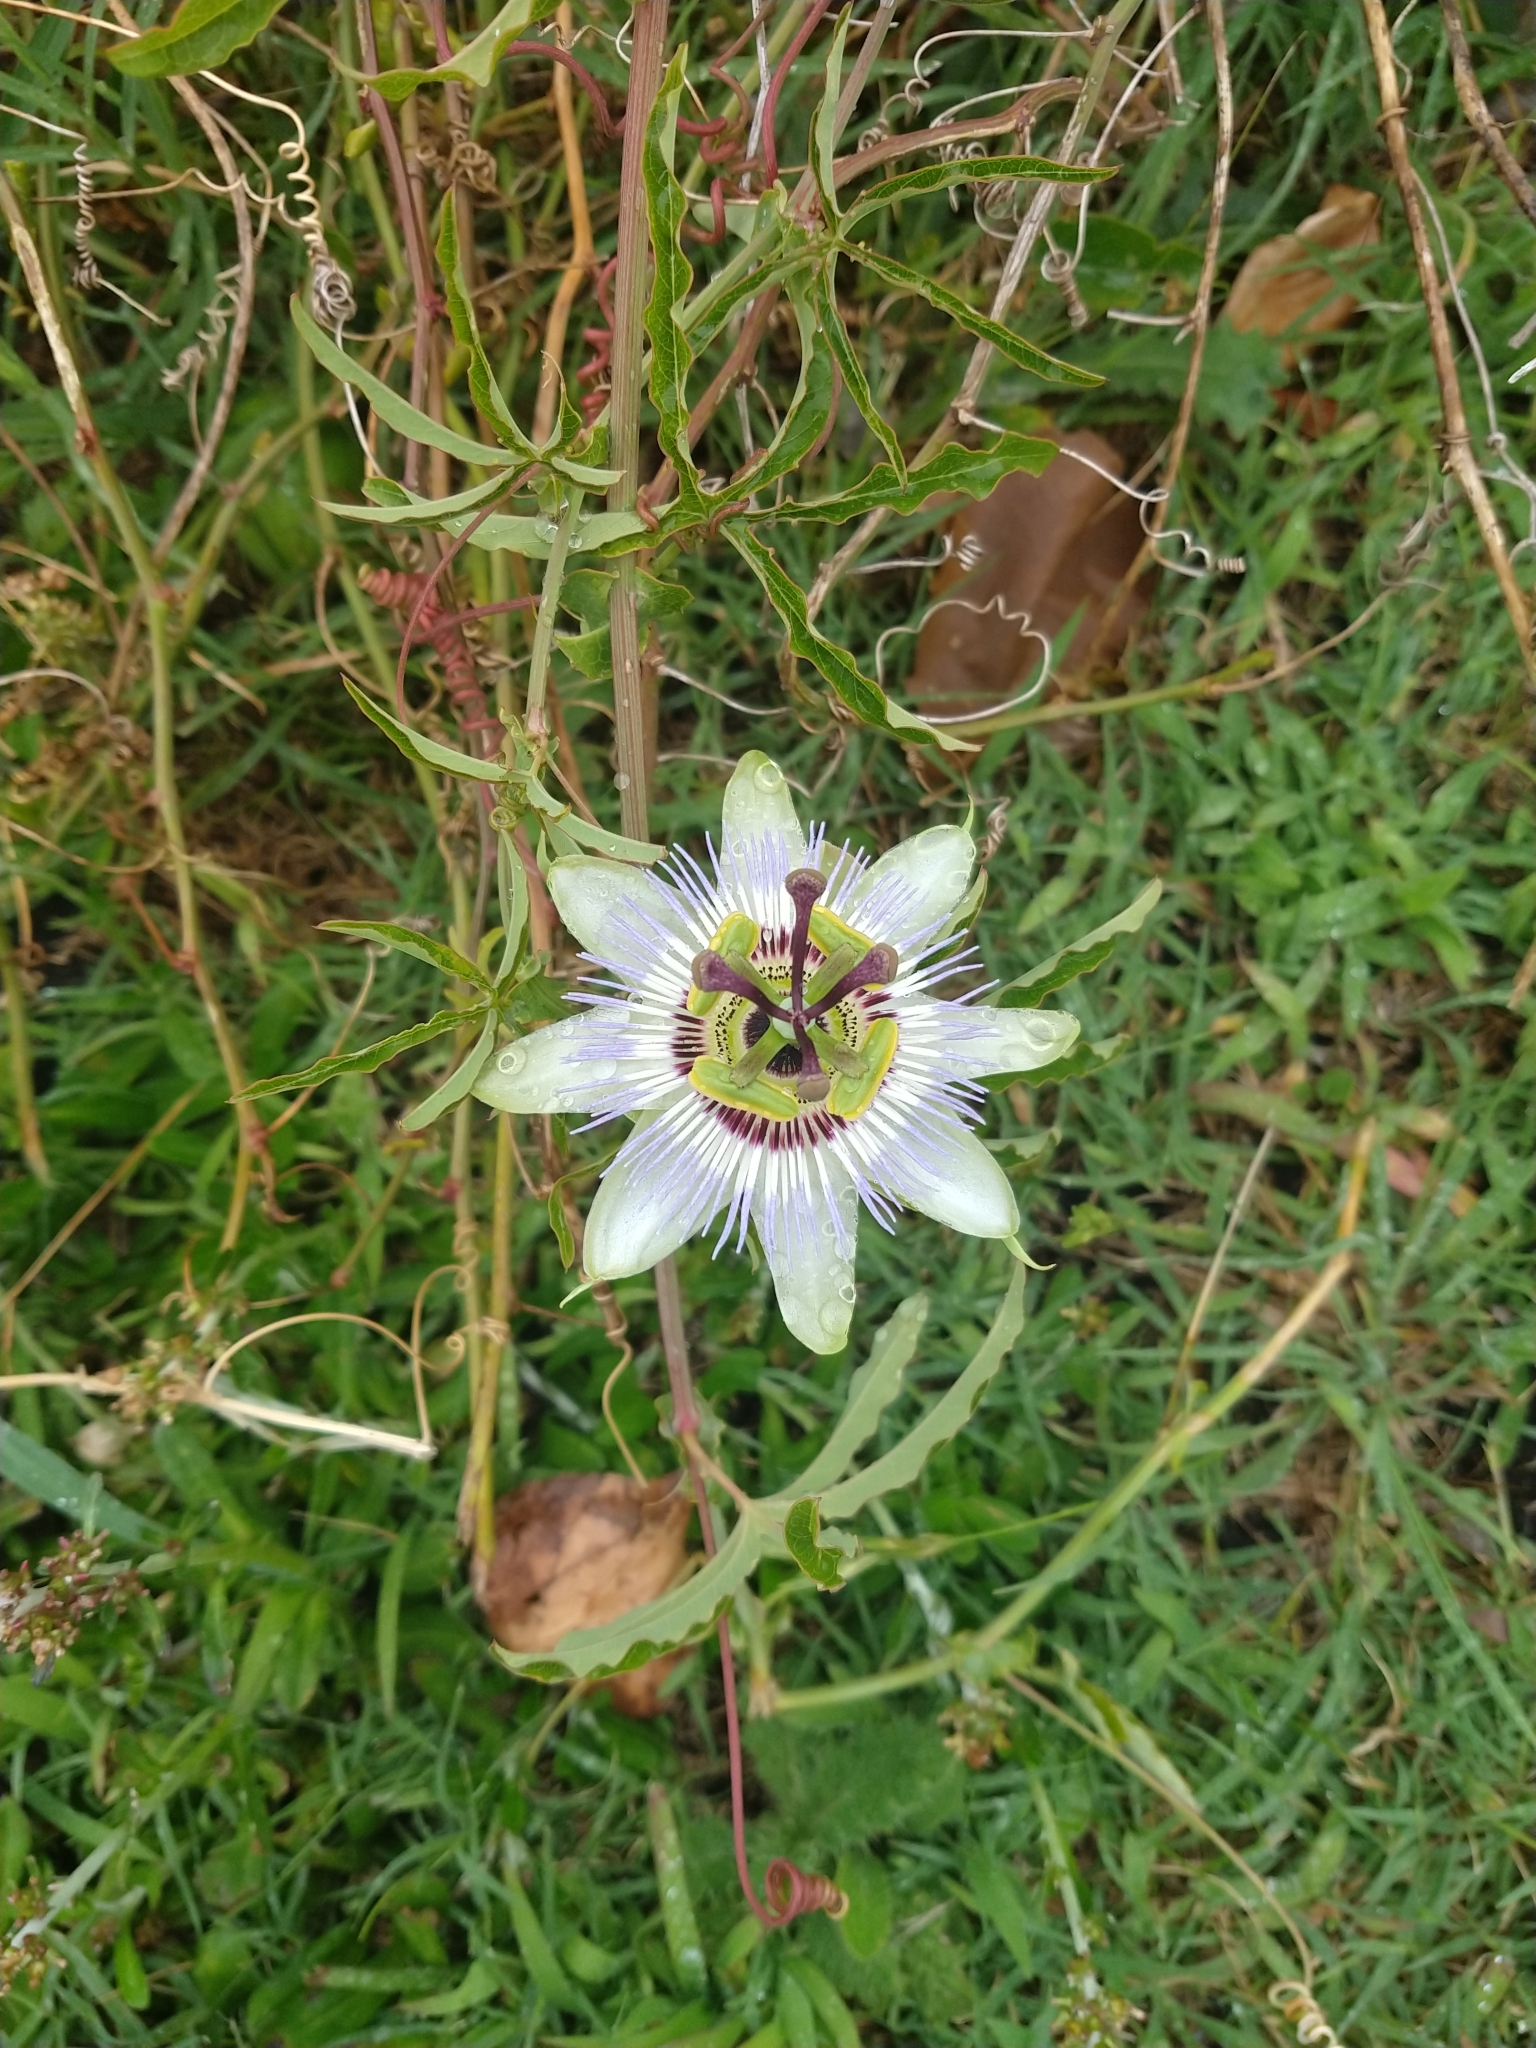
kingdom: Plantae
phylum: Tracheophyta
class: Magnoliopsida
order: Malpighiales
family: Passifloraceae
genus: Passiflora
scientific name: Passiflora caerulea
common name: Blue passionflower
